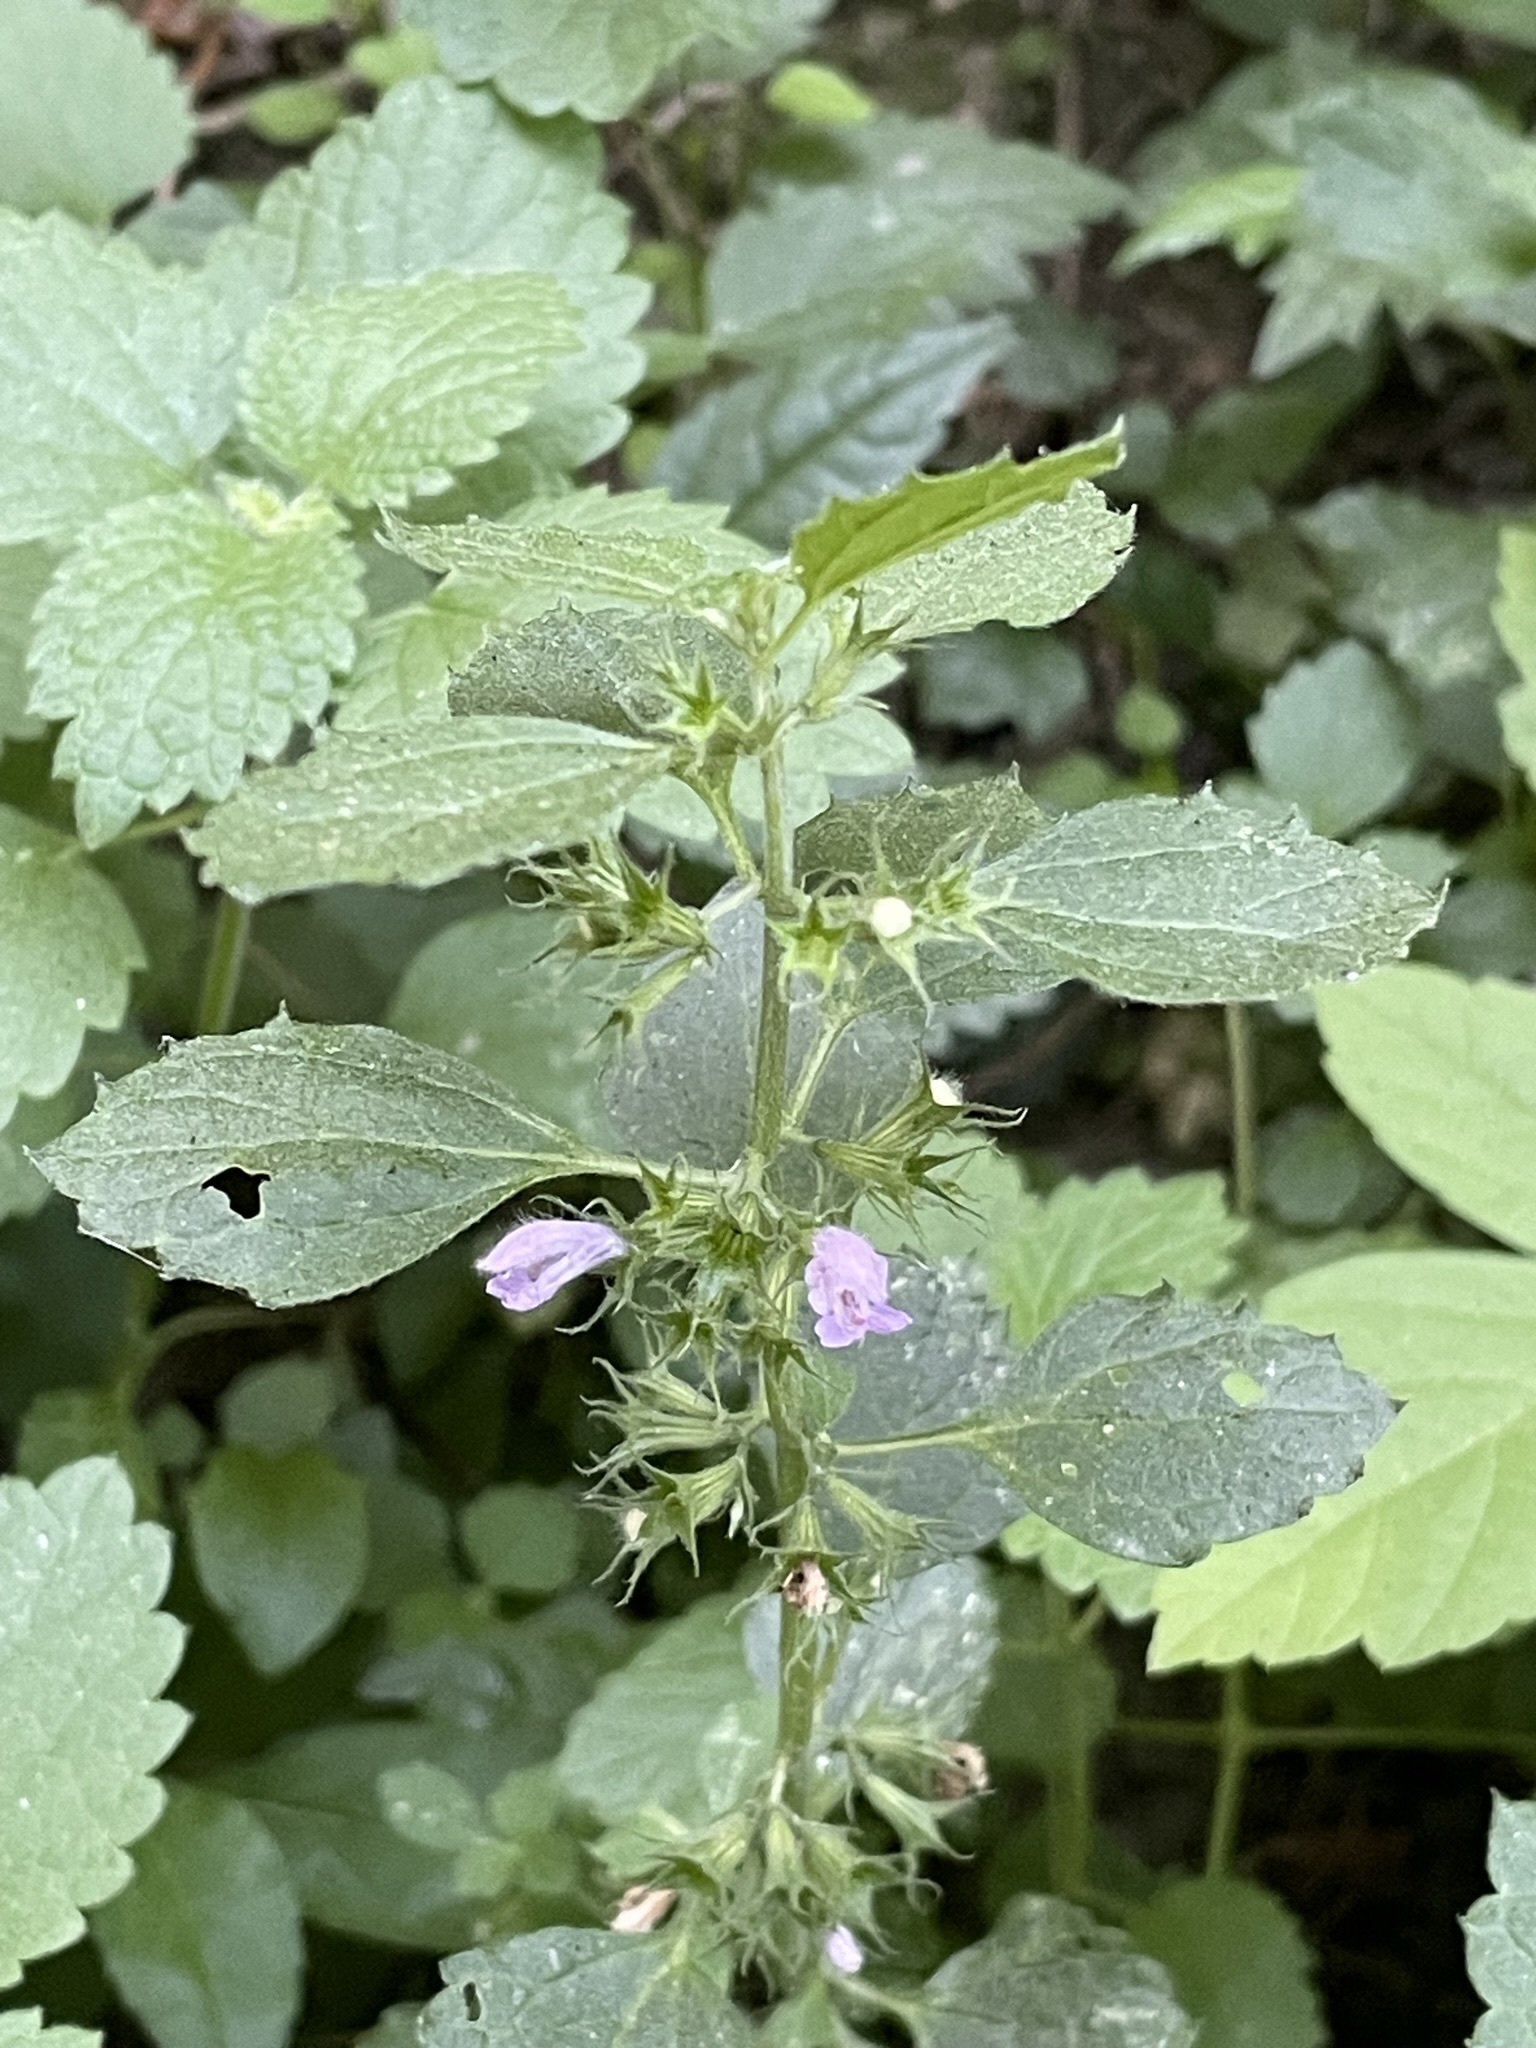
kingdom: Plantae
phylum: Tracheophyta
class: Magnoliopsida
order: Lamiales
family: Lamiaceae
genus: Ballota
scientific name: Ballota nigra
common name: Black horehound
